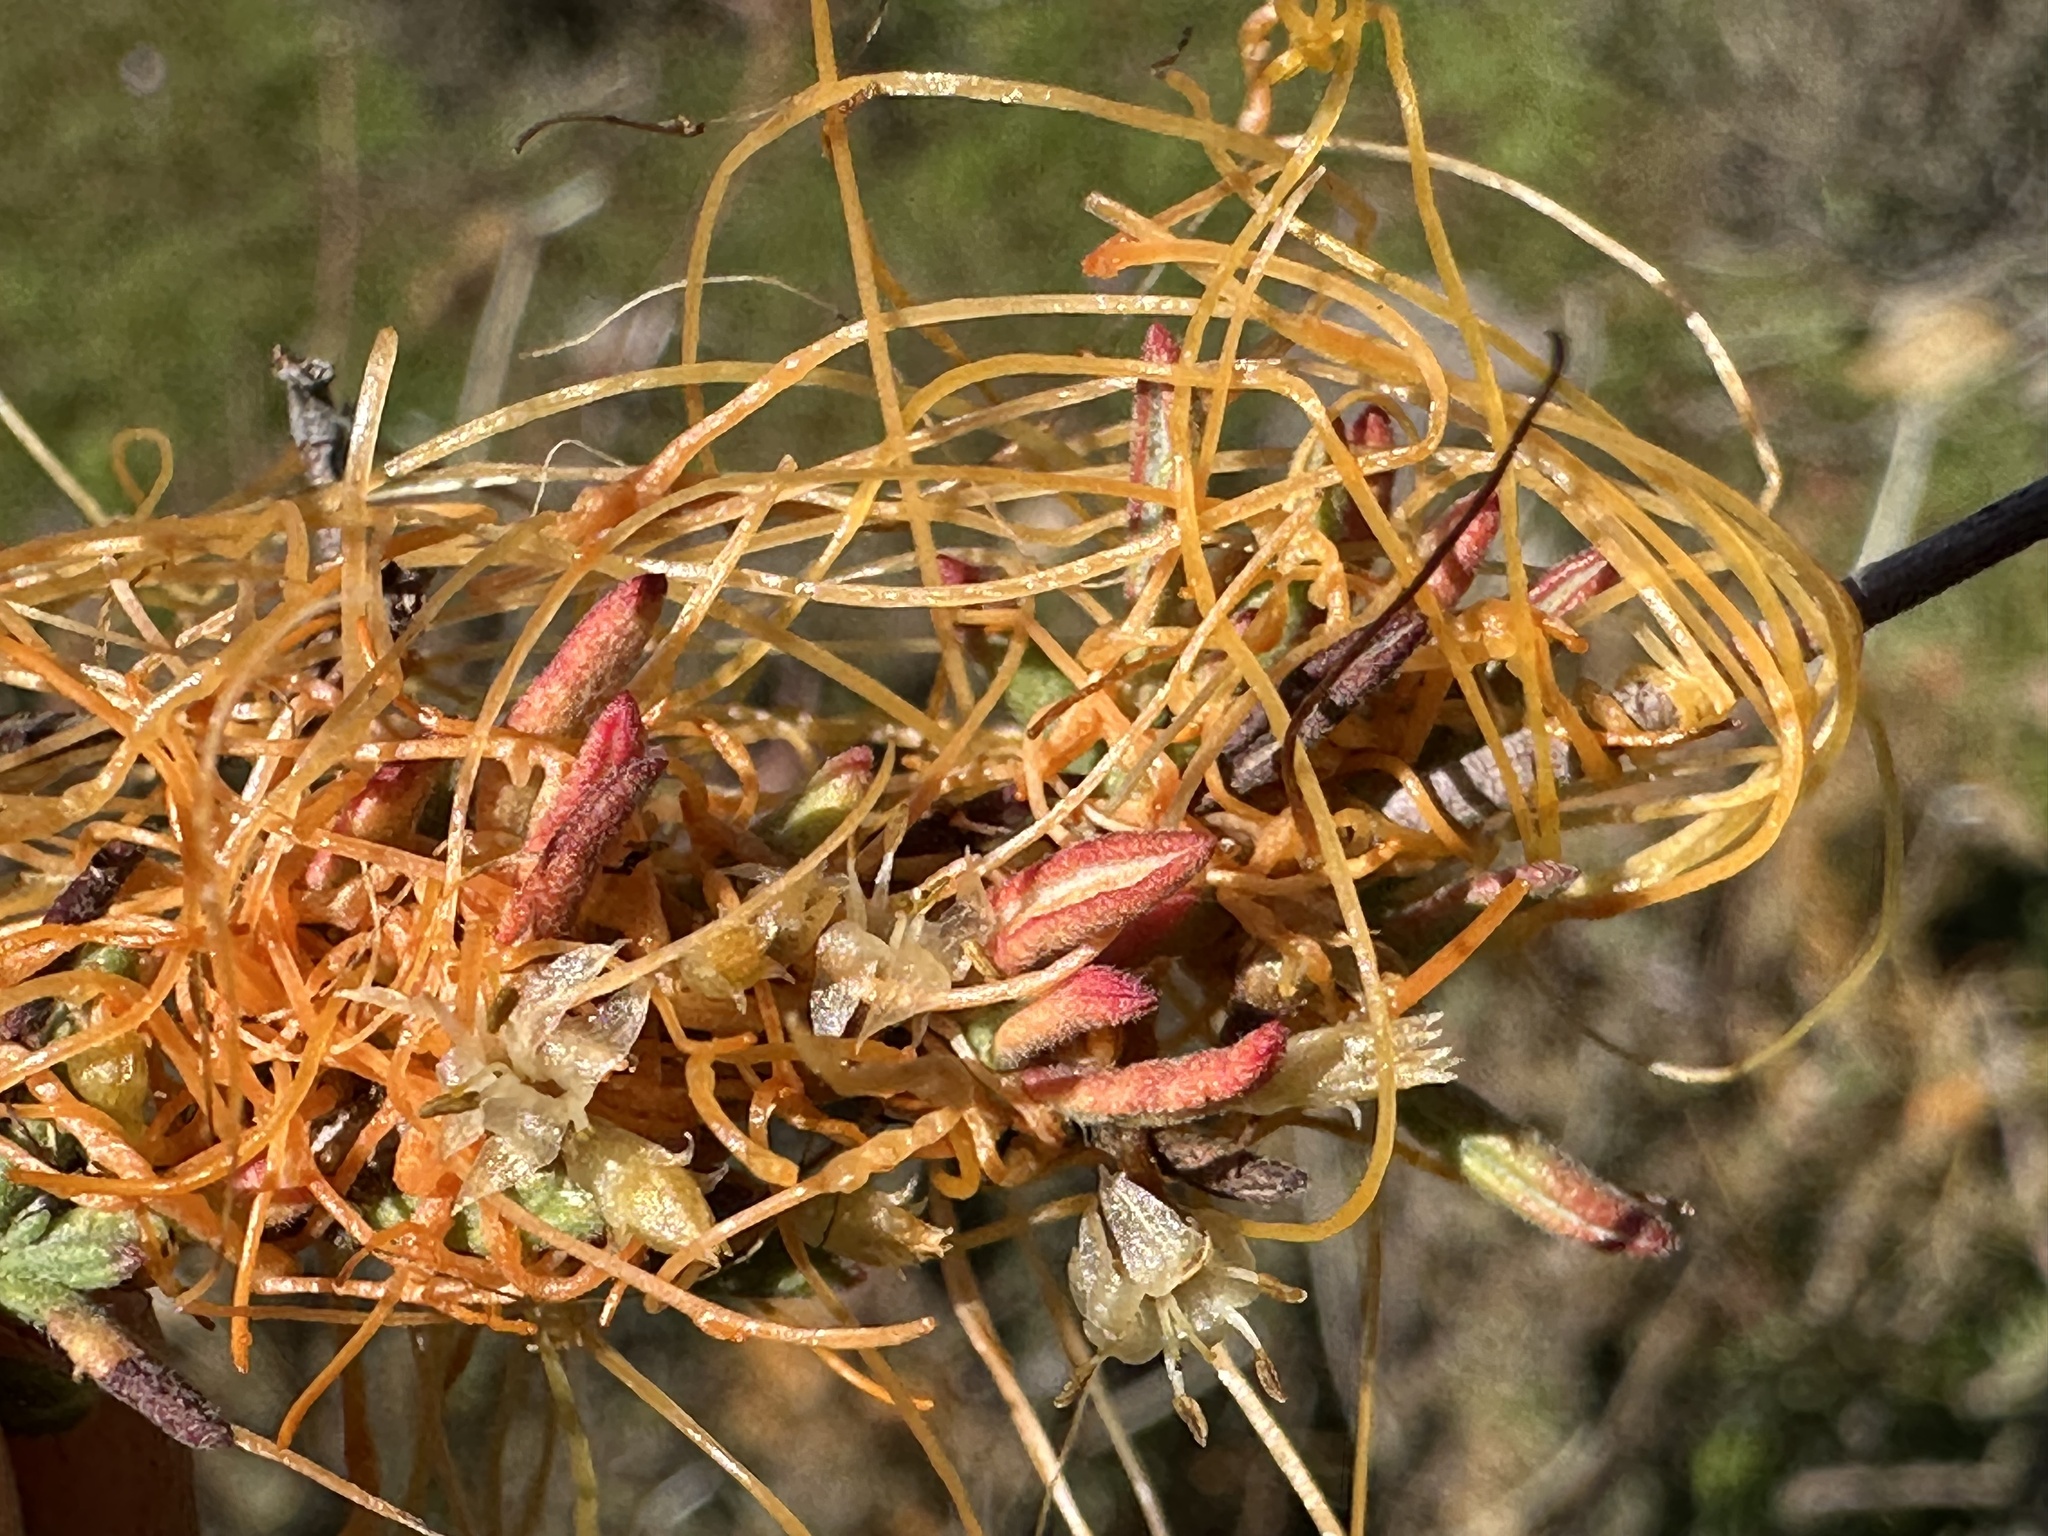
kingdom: Plantae
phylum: Tracheophyta
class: Magnoliopsida
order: Solanales
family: Convolvulaceae
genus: Cuscuta
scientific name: Cuscuta californica
